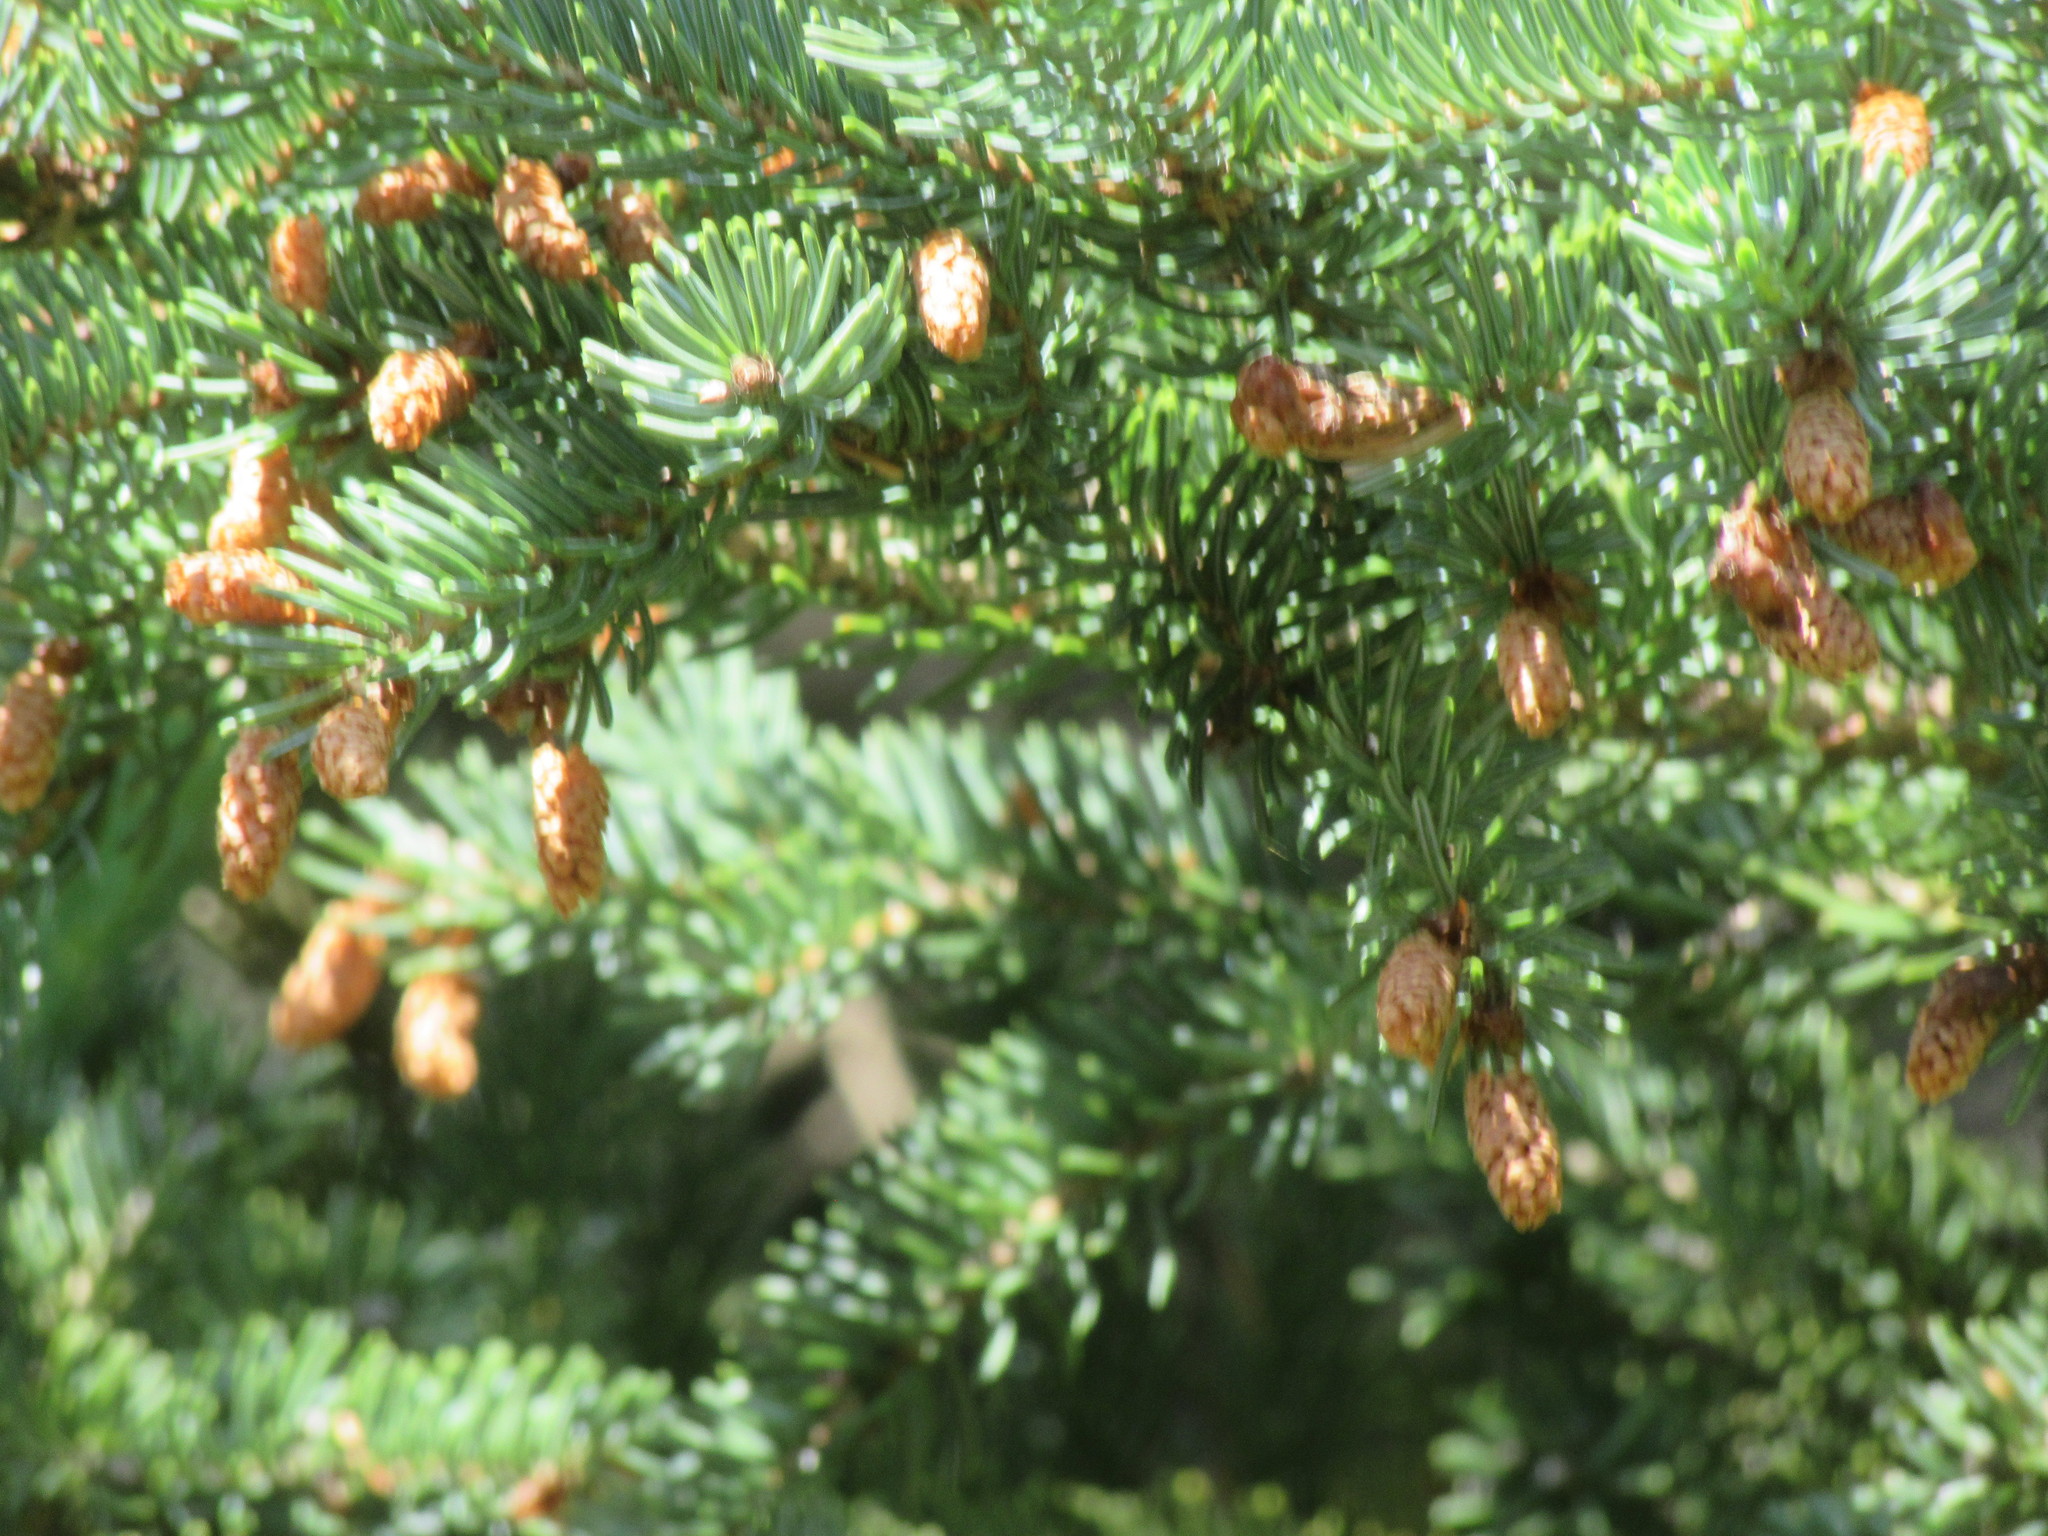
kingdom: Plantae
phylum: Tracheophyta
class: Pinopsida
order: Pinales
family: Pinaceae
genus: Picea
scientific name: Picea glauca
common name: White spruce
